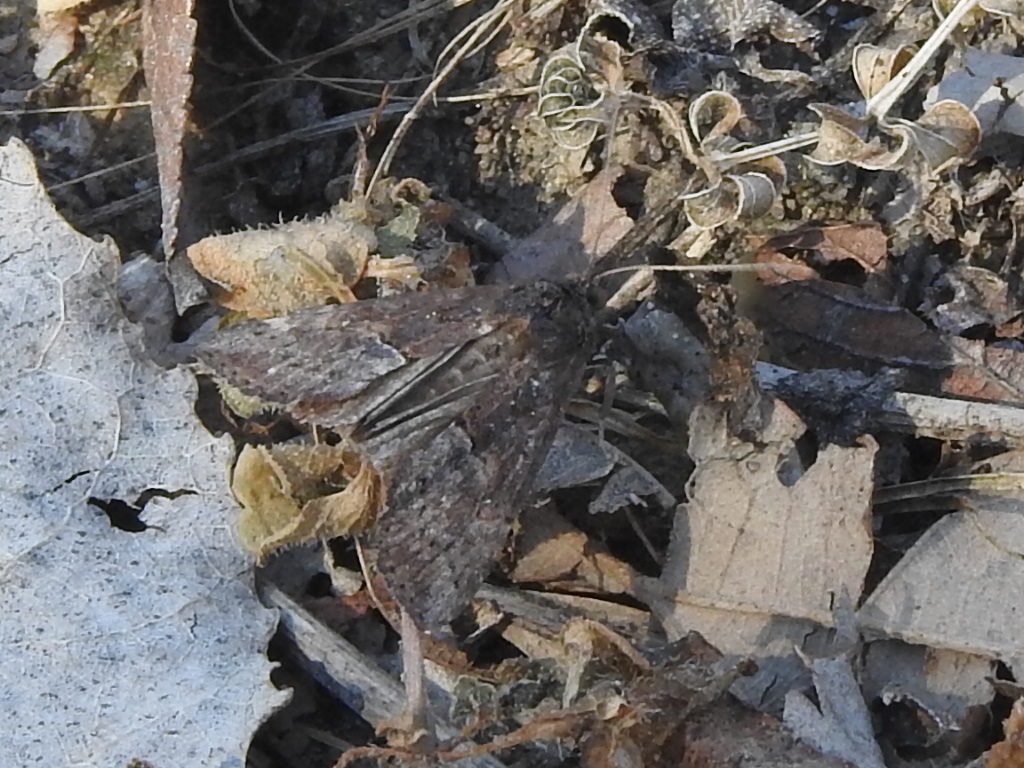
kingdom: Animalia
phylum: Arthropoda
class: Insecta
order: Lepidoptera
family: Erebidae
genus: Hypena
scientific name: Hypena scabra
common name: Green cloverworm
